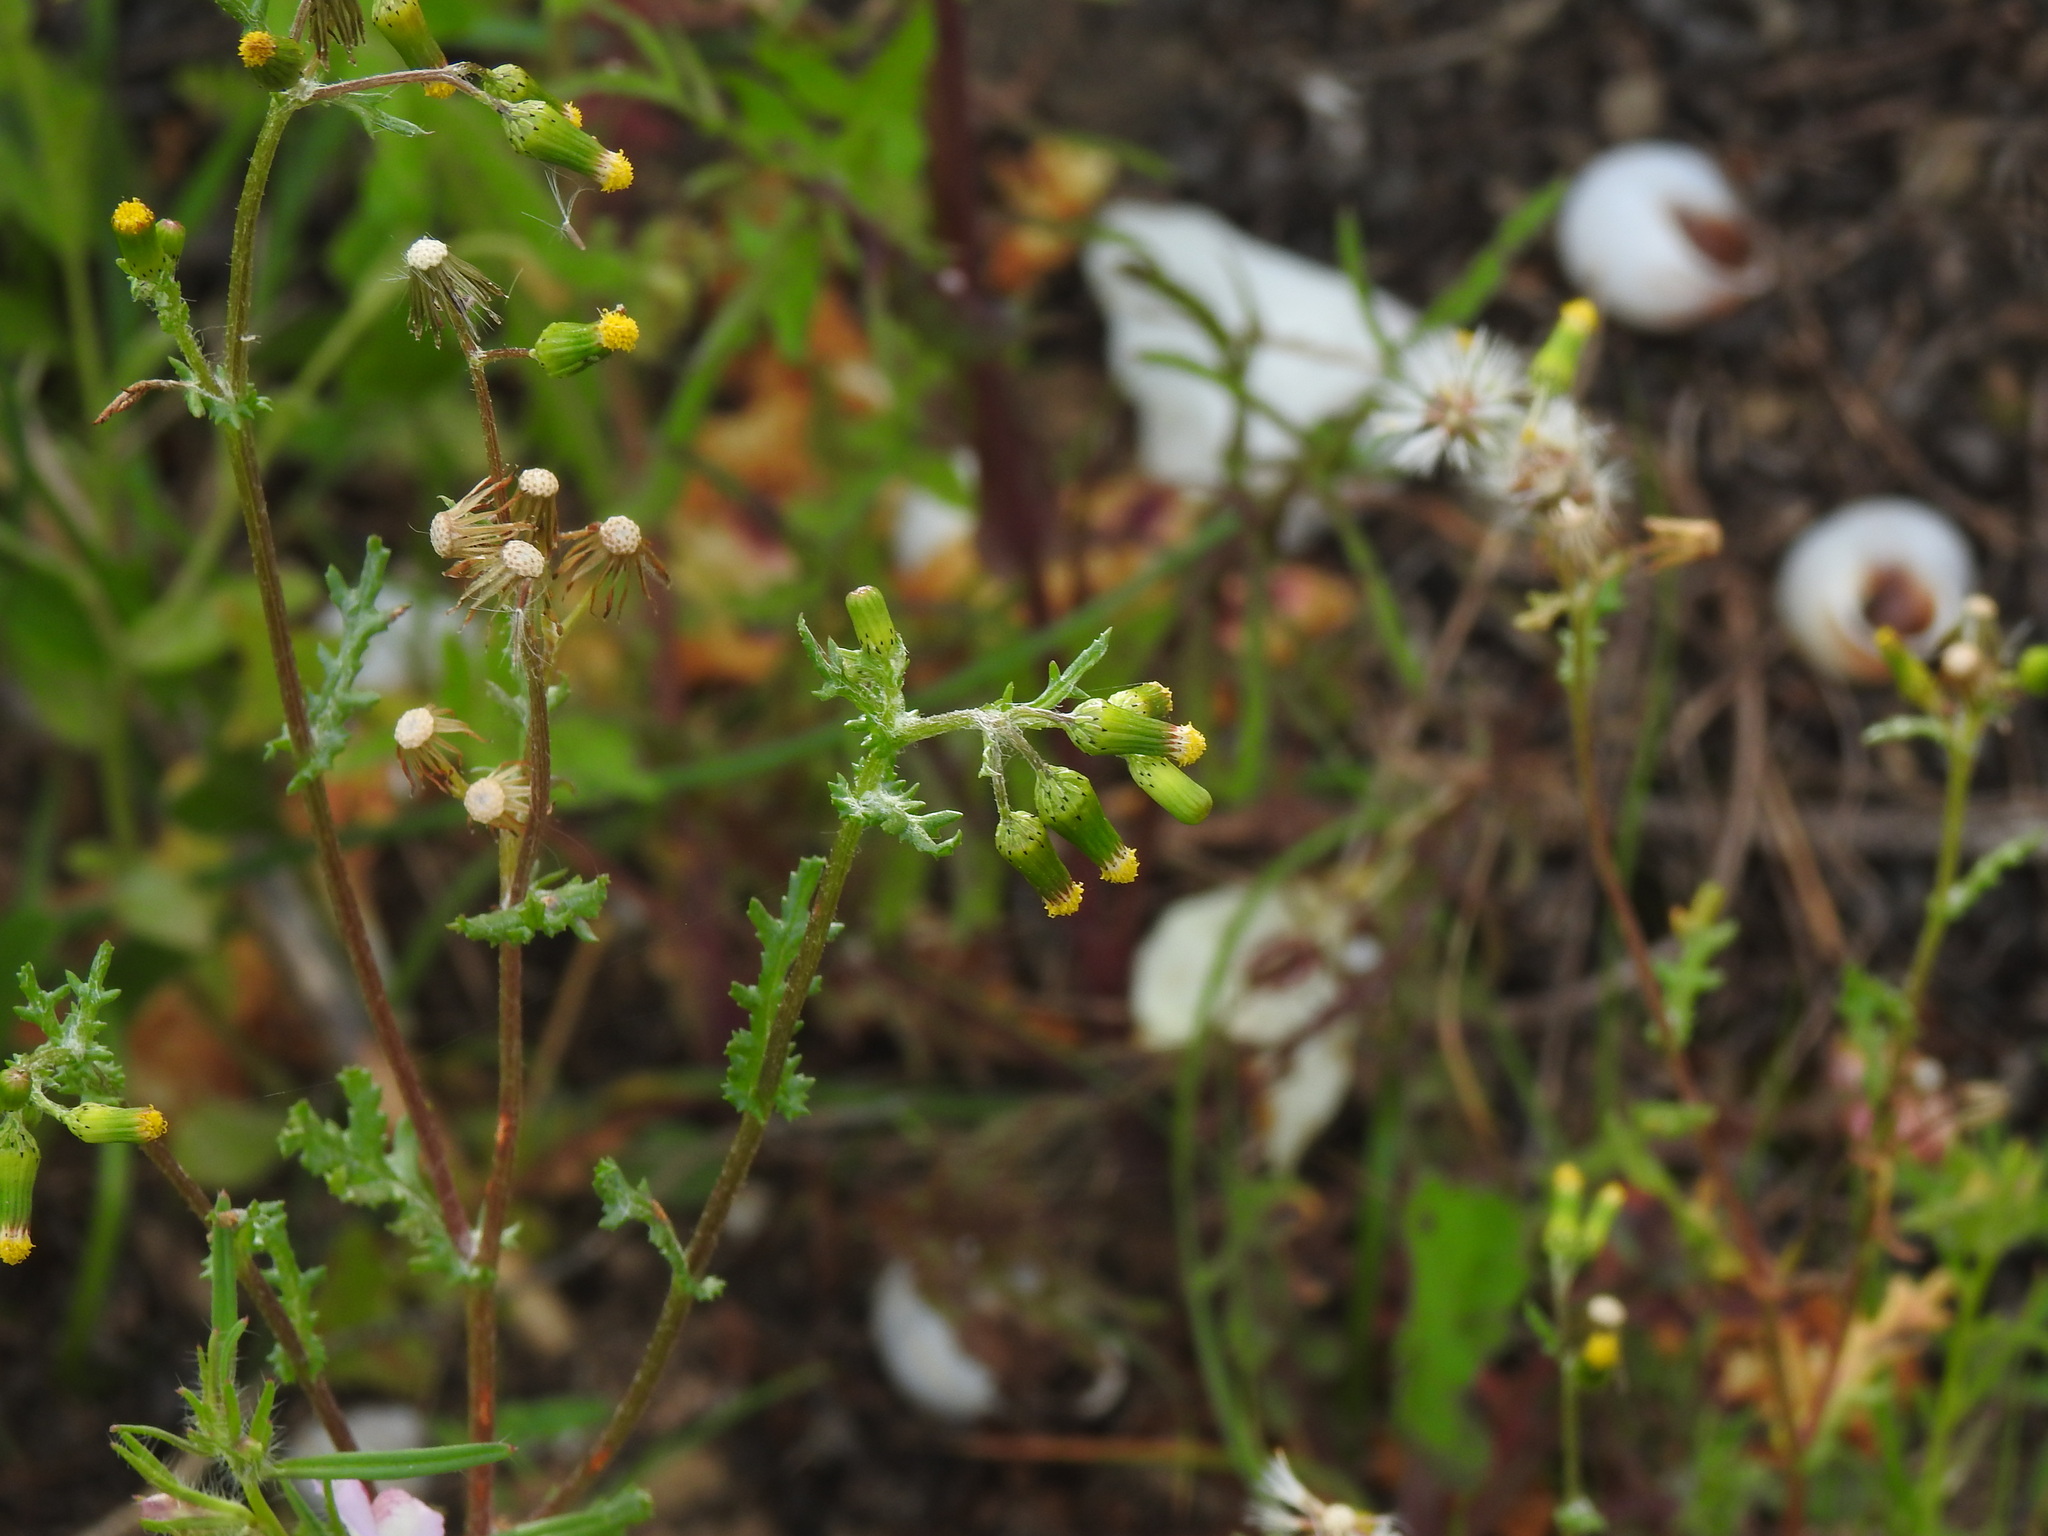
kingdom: Plantae
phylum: Tracheophyta
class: Magnoliopsida
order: Asterales
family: Asteraceae
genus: Senecio
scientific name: Senecio vulgaris
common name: Old-man-in-the-spring
